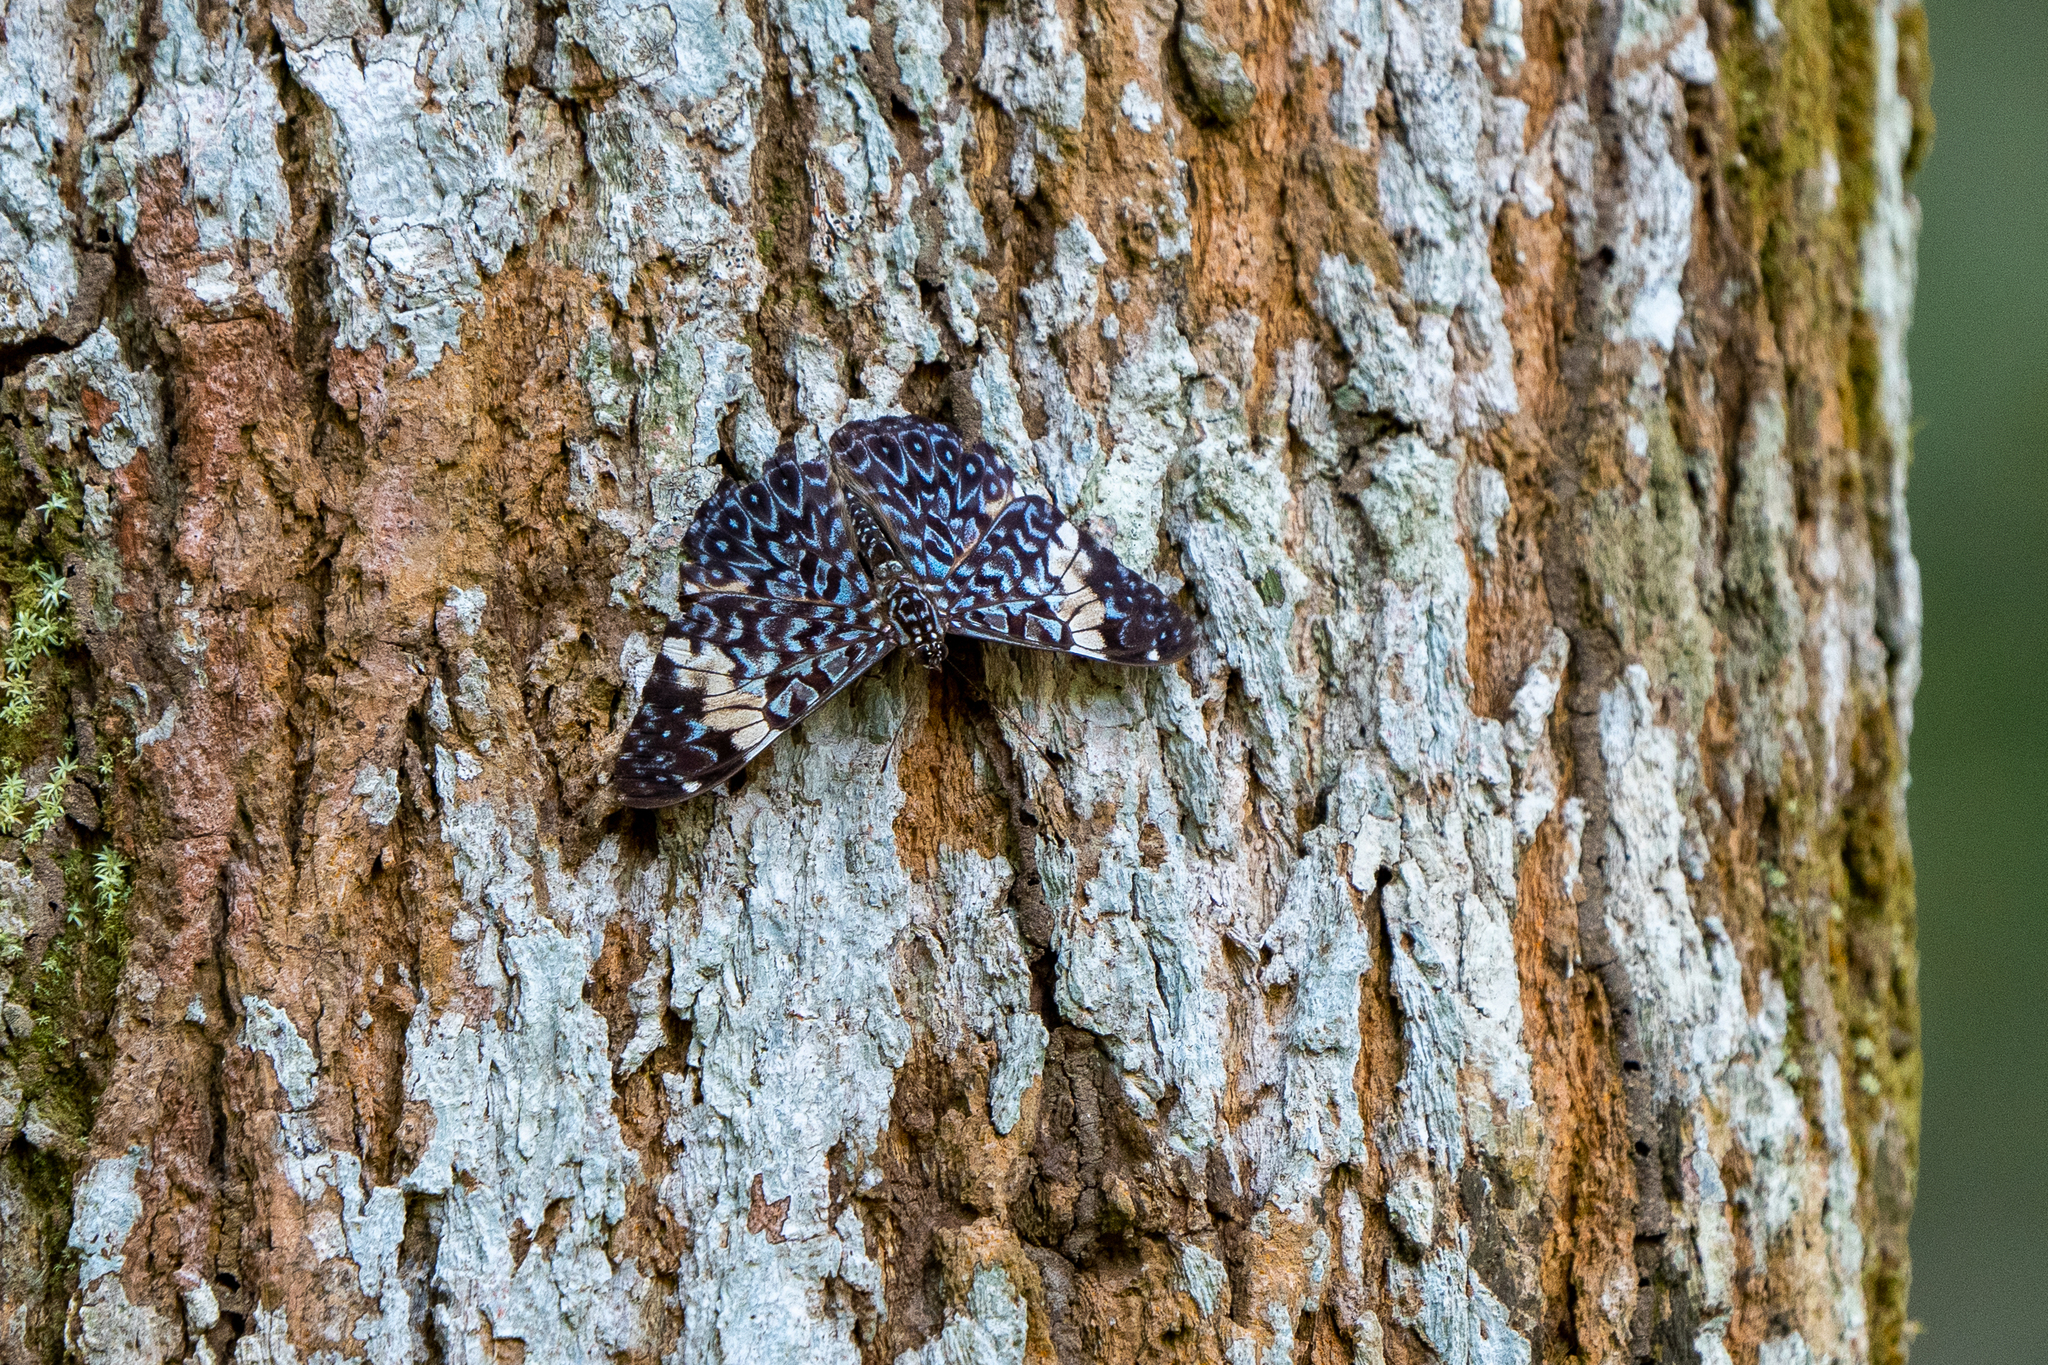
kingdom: Animalia
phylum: Arthropoda
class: Insecta
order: Lepidoptera
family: Nymphalidae
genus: Hamadryas
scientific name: Hamadryas amphinome
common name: Red cracker
